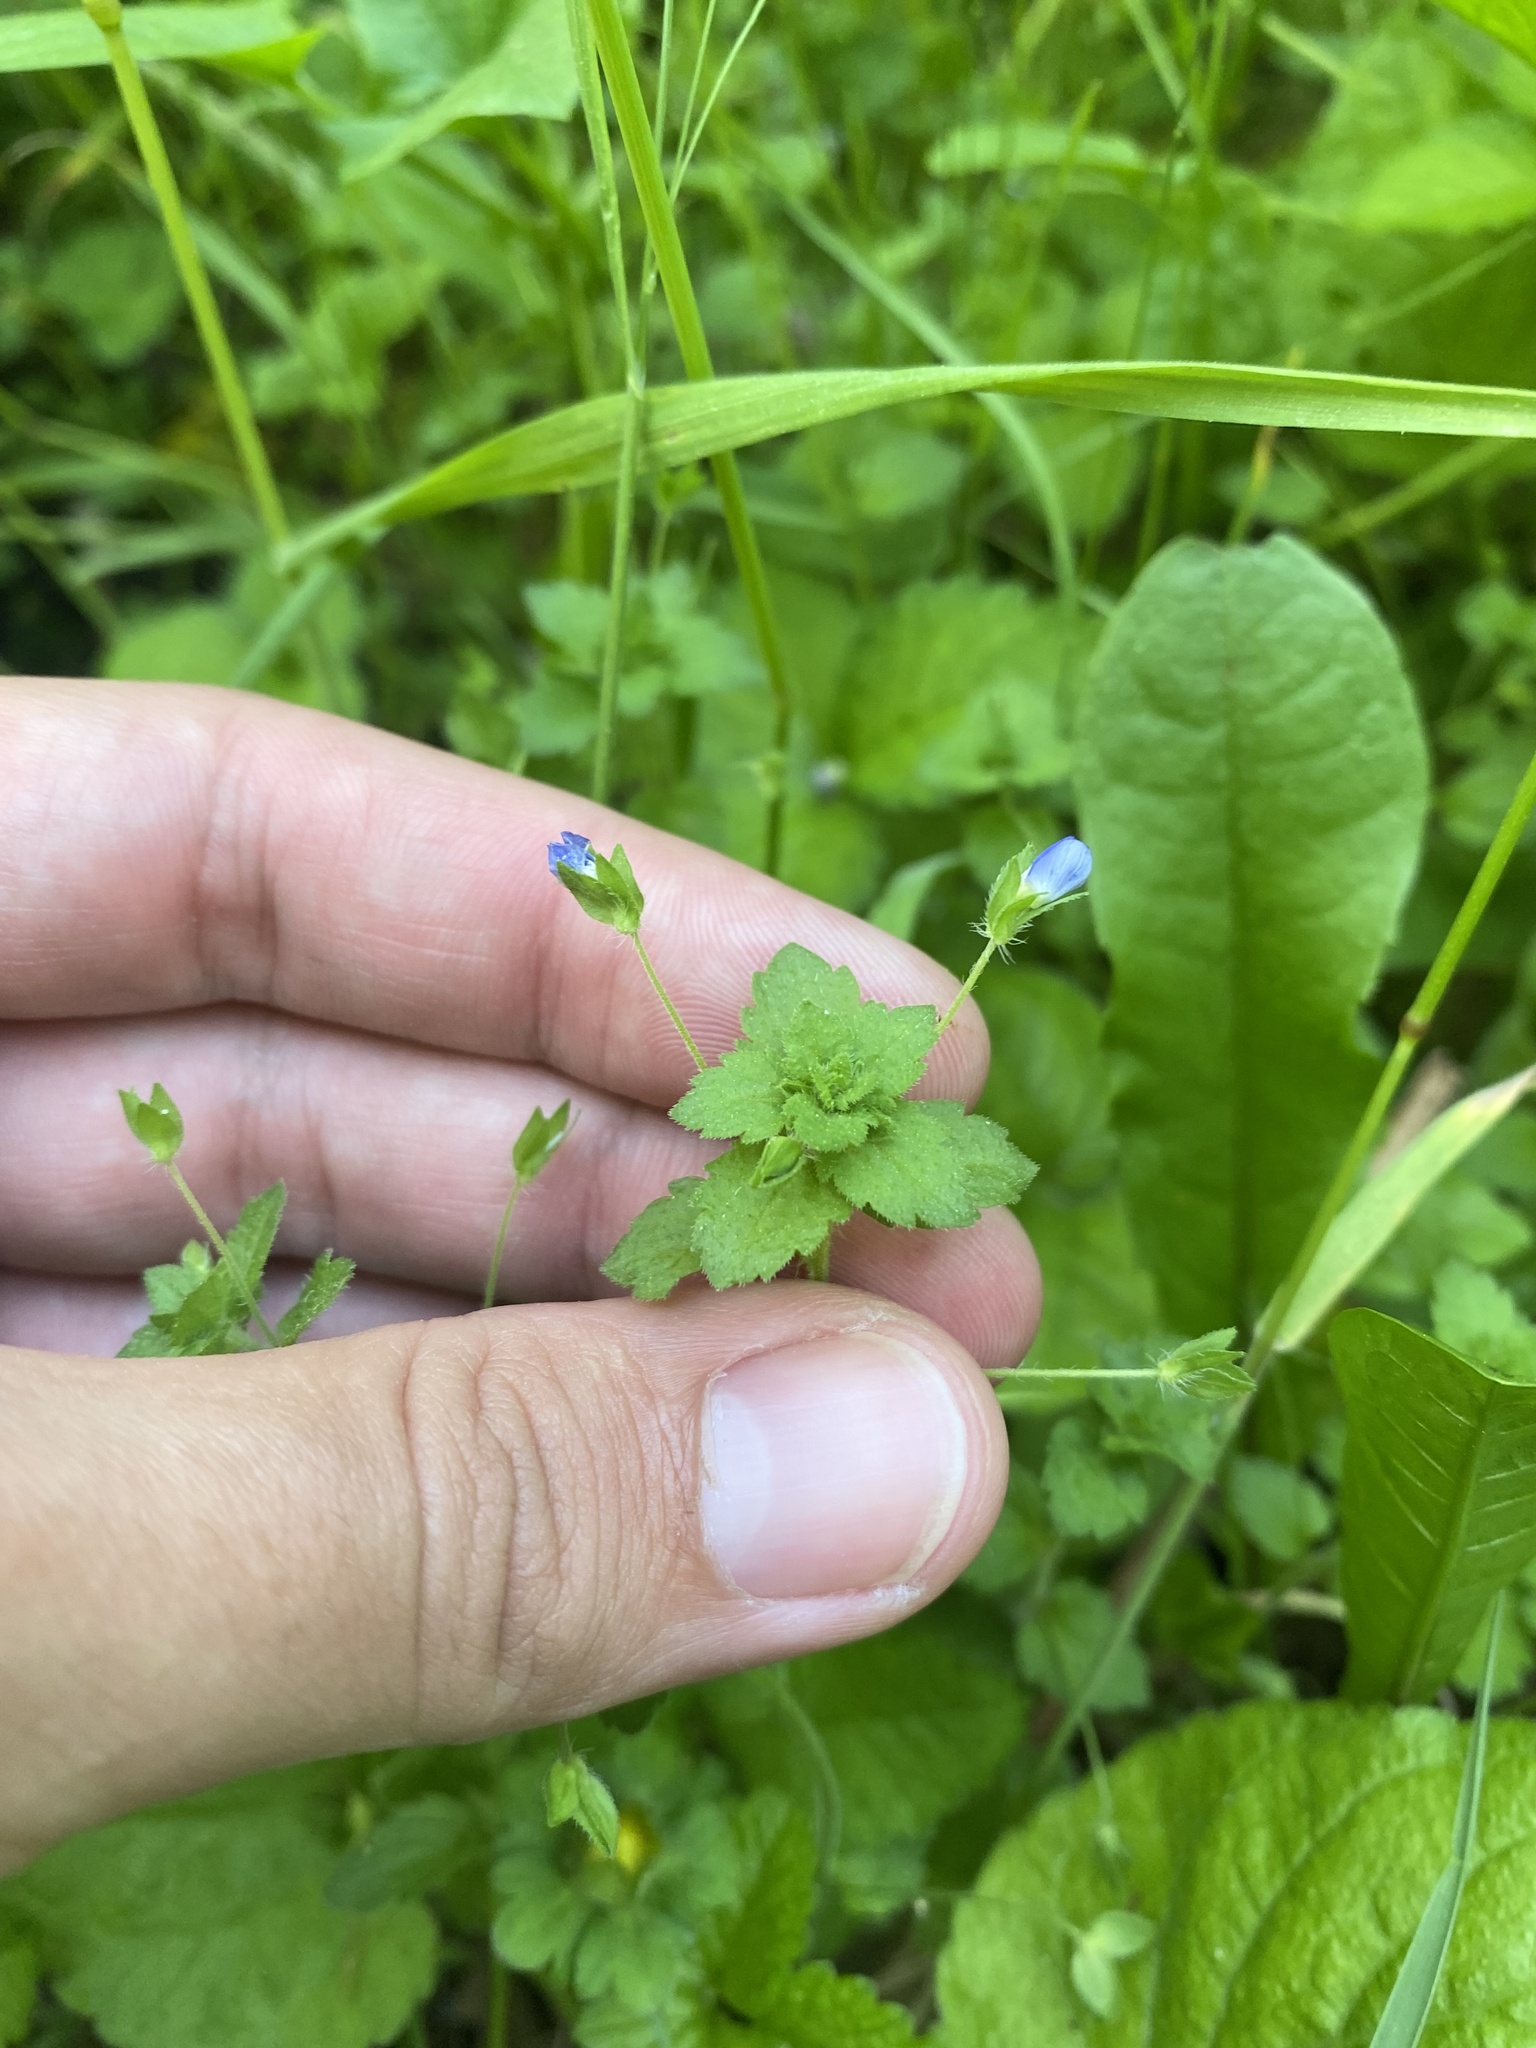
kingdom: Plantae
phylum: Tracheophyta
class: Magnoliopsida
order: Lamiales
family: Plantaginaceae
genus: Veronica
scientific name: Veronica persica
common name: Common field-speedwell
